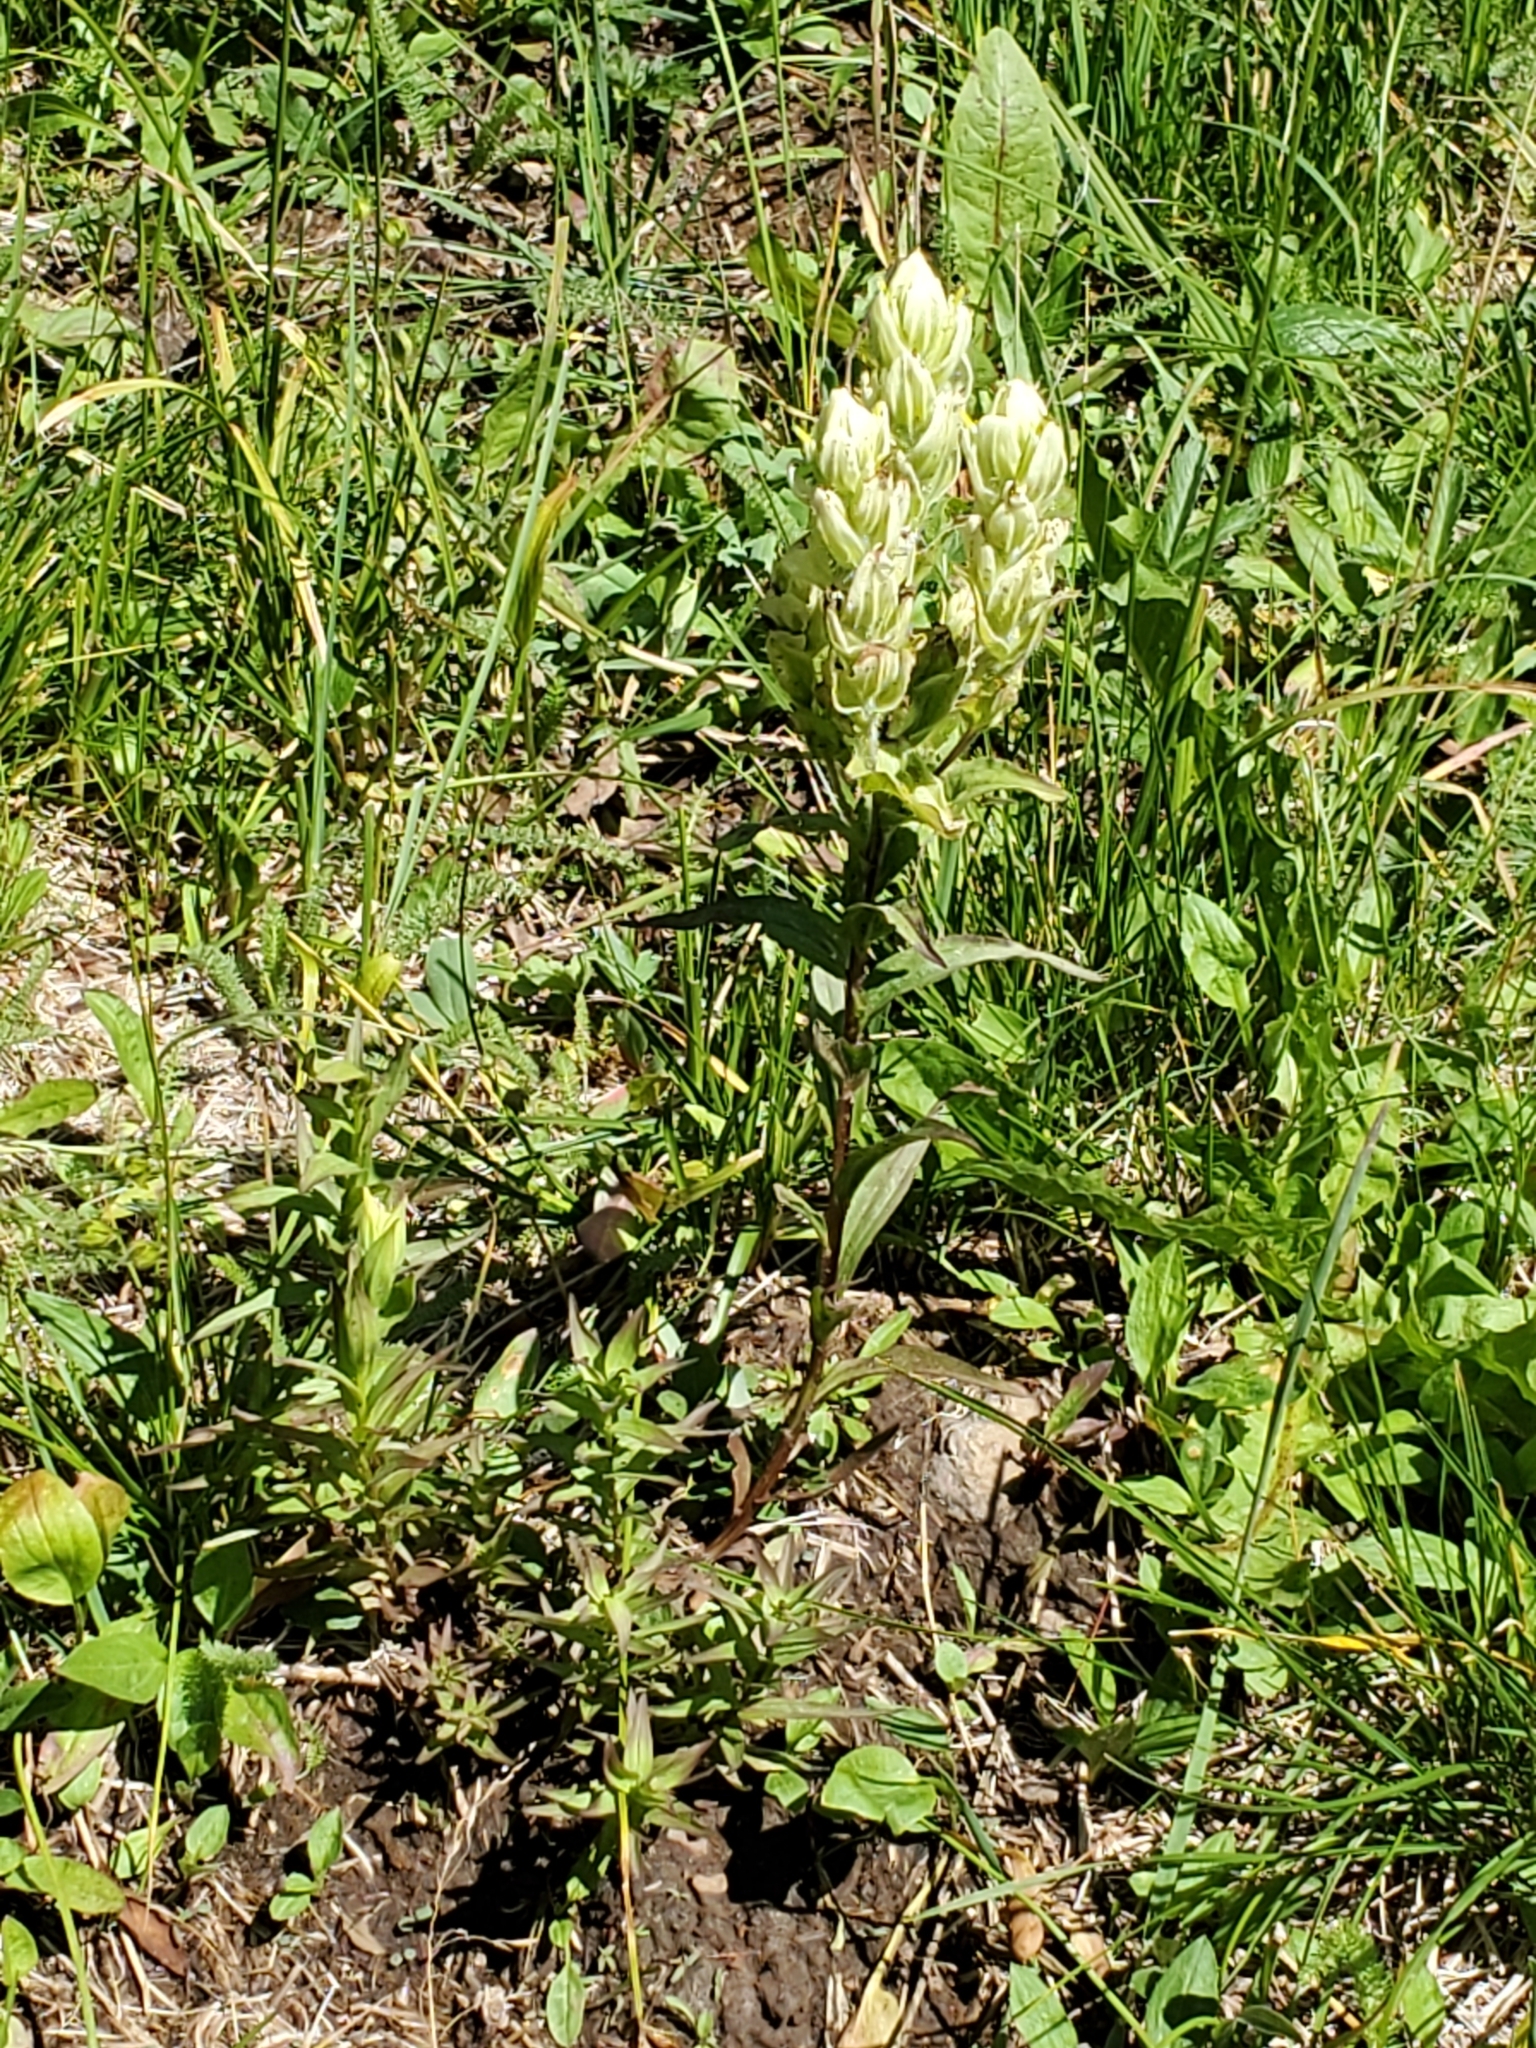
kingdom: Plantae
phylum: Tracheophyta
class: Magnoliopsida
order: Lamiales
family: Orobanchaceae
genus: Castilleja
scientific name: Castilleja occidentalis
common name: Western paintbrush
